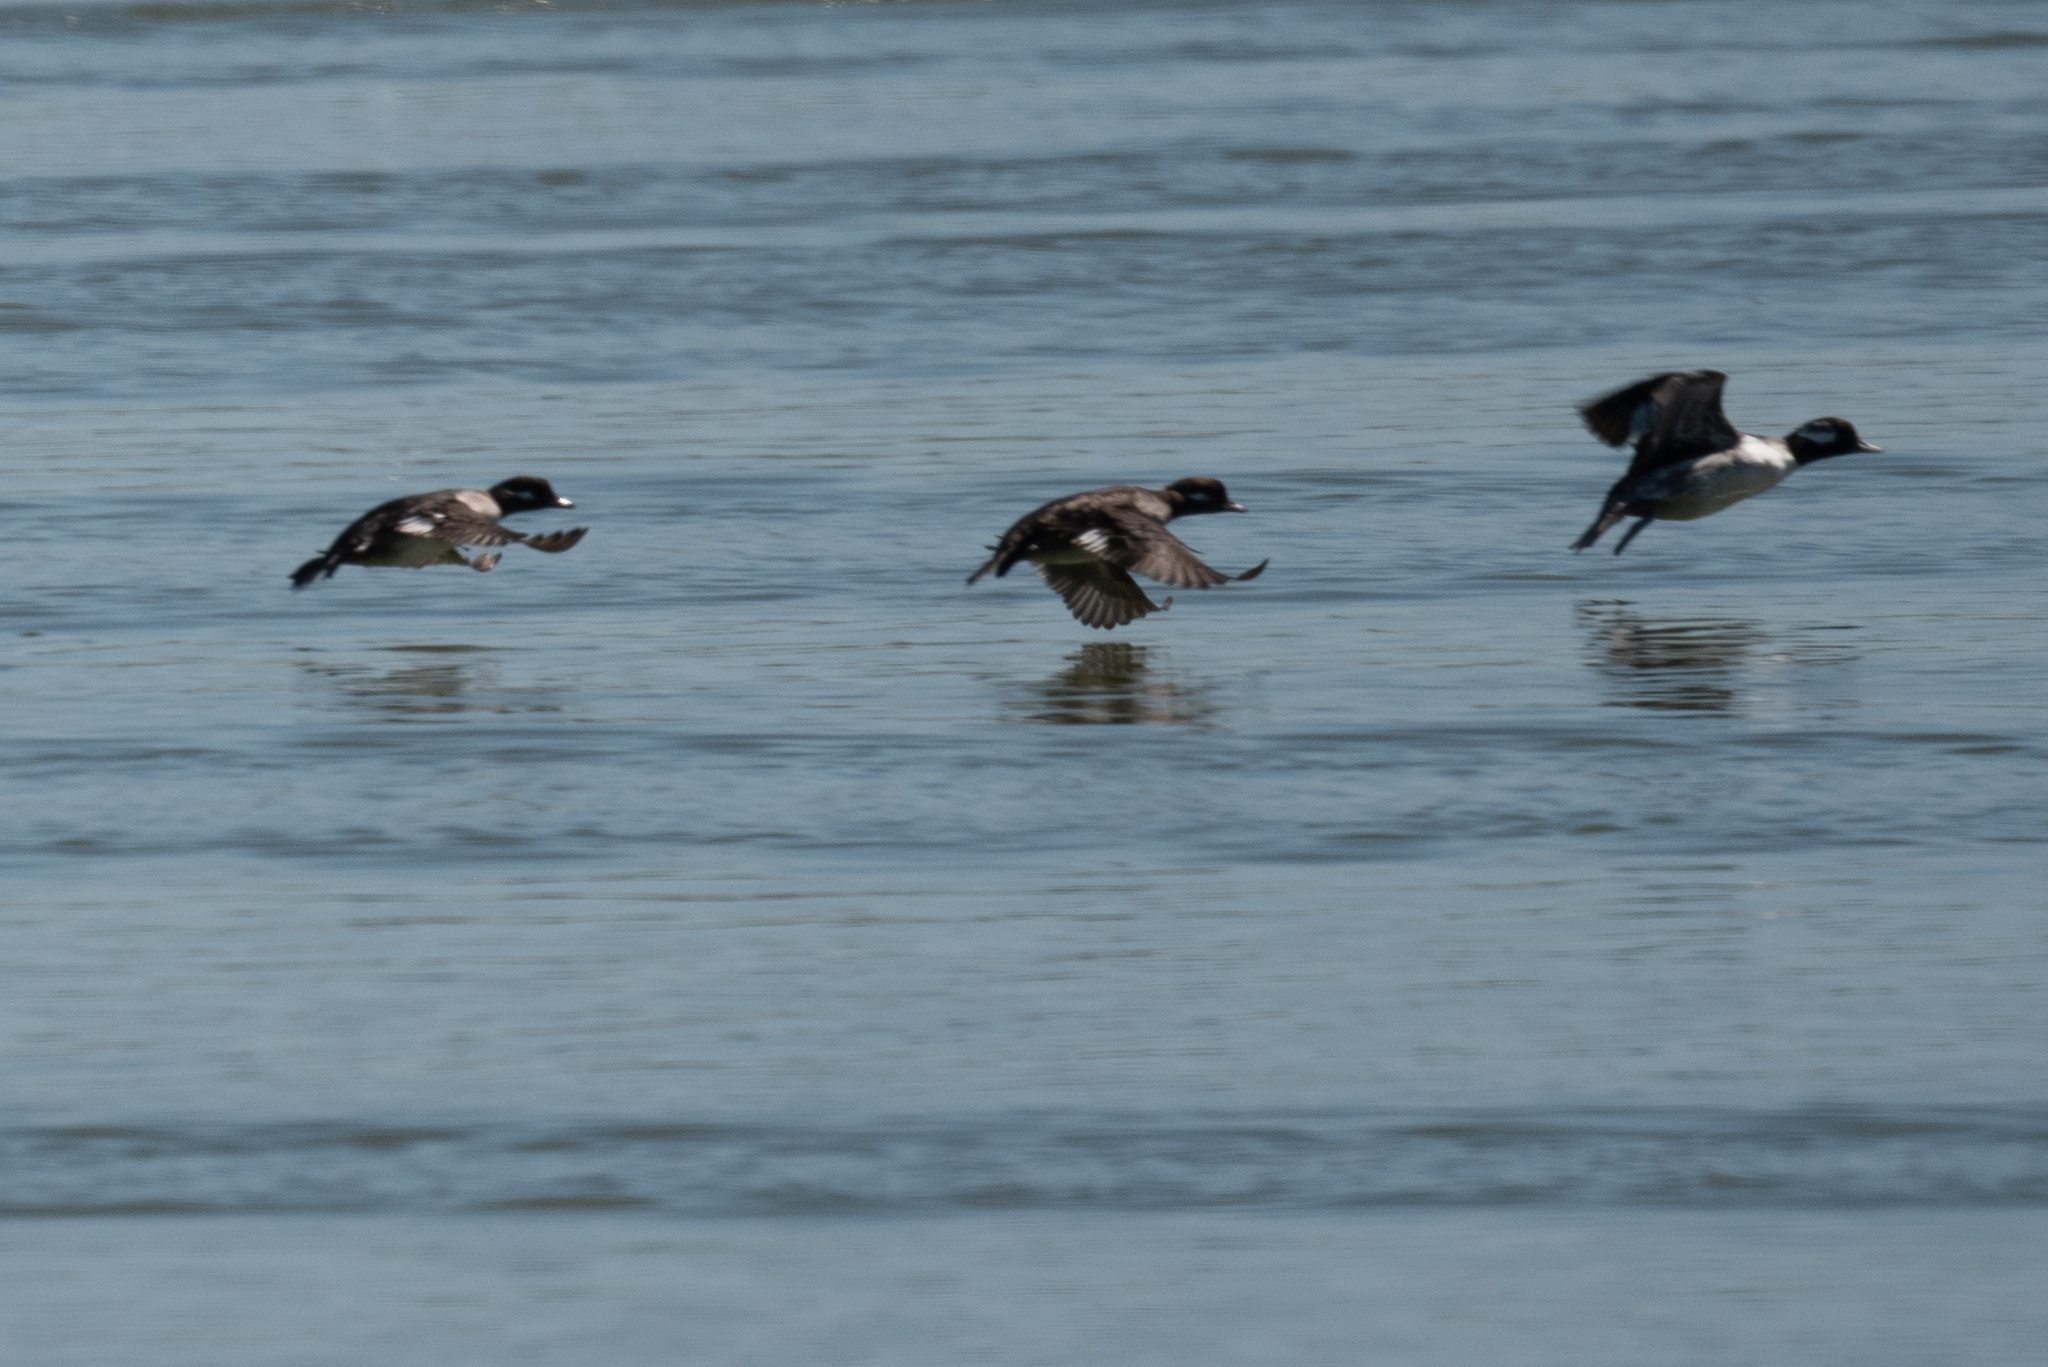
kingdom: Animalia
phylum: Chordata
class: Aves
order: Anseriformes
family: Anatidae
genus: Bucephala
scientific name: Bucephala albeola
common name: Bufflehead
